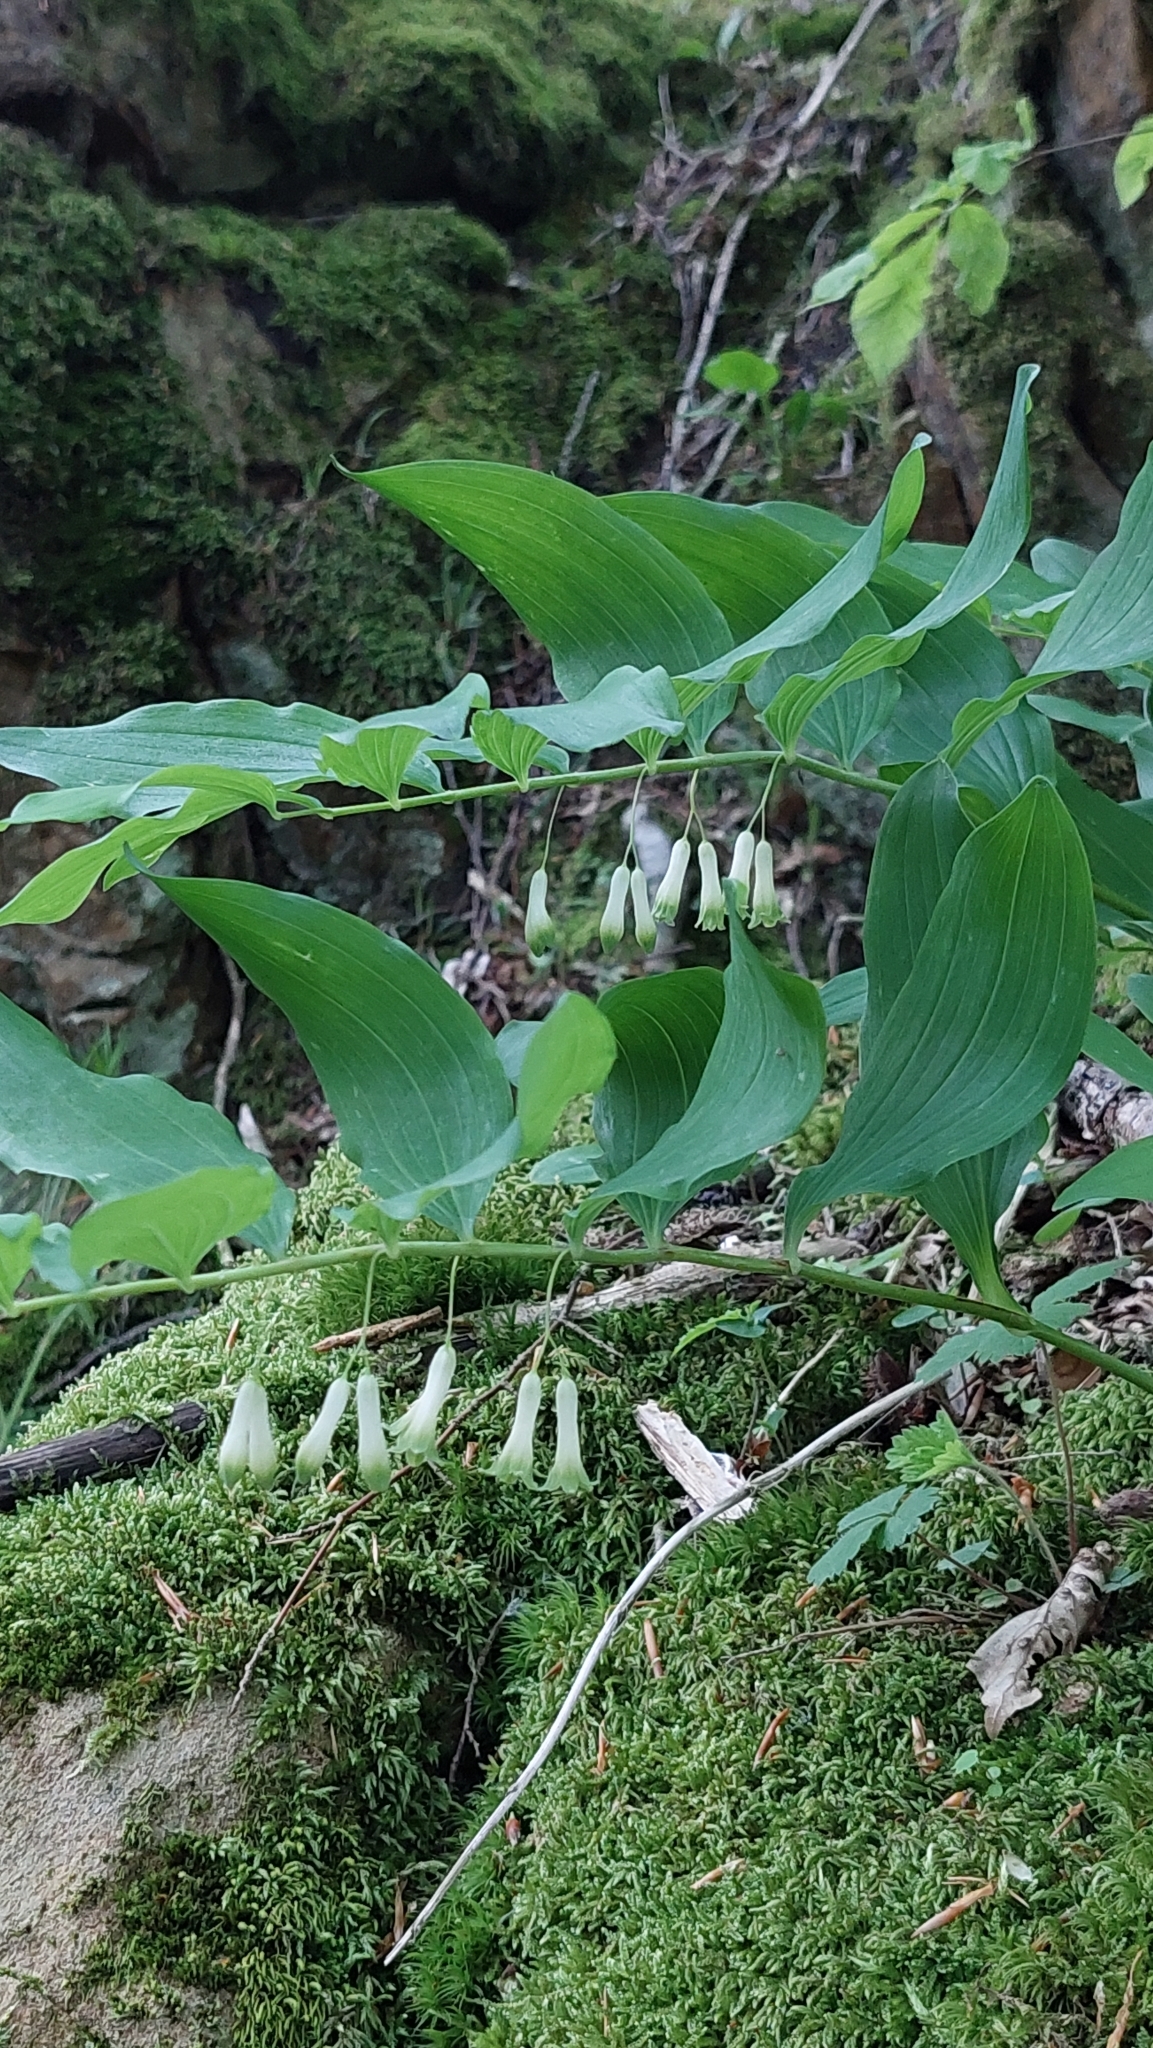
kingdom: Plantae
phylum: Tracheophyta
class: Liliopsida
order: Asparagales
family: Asparagaceae
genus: Polygonatum
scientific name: Polygonatum multiflorum
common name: Solomon's-seal
